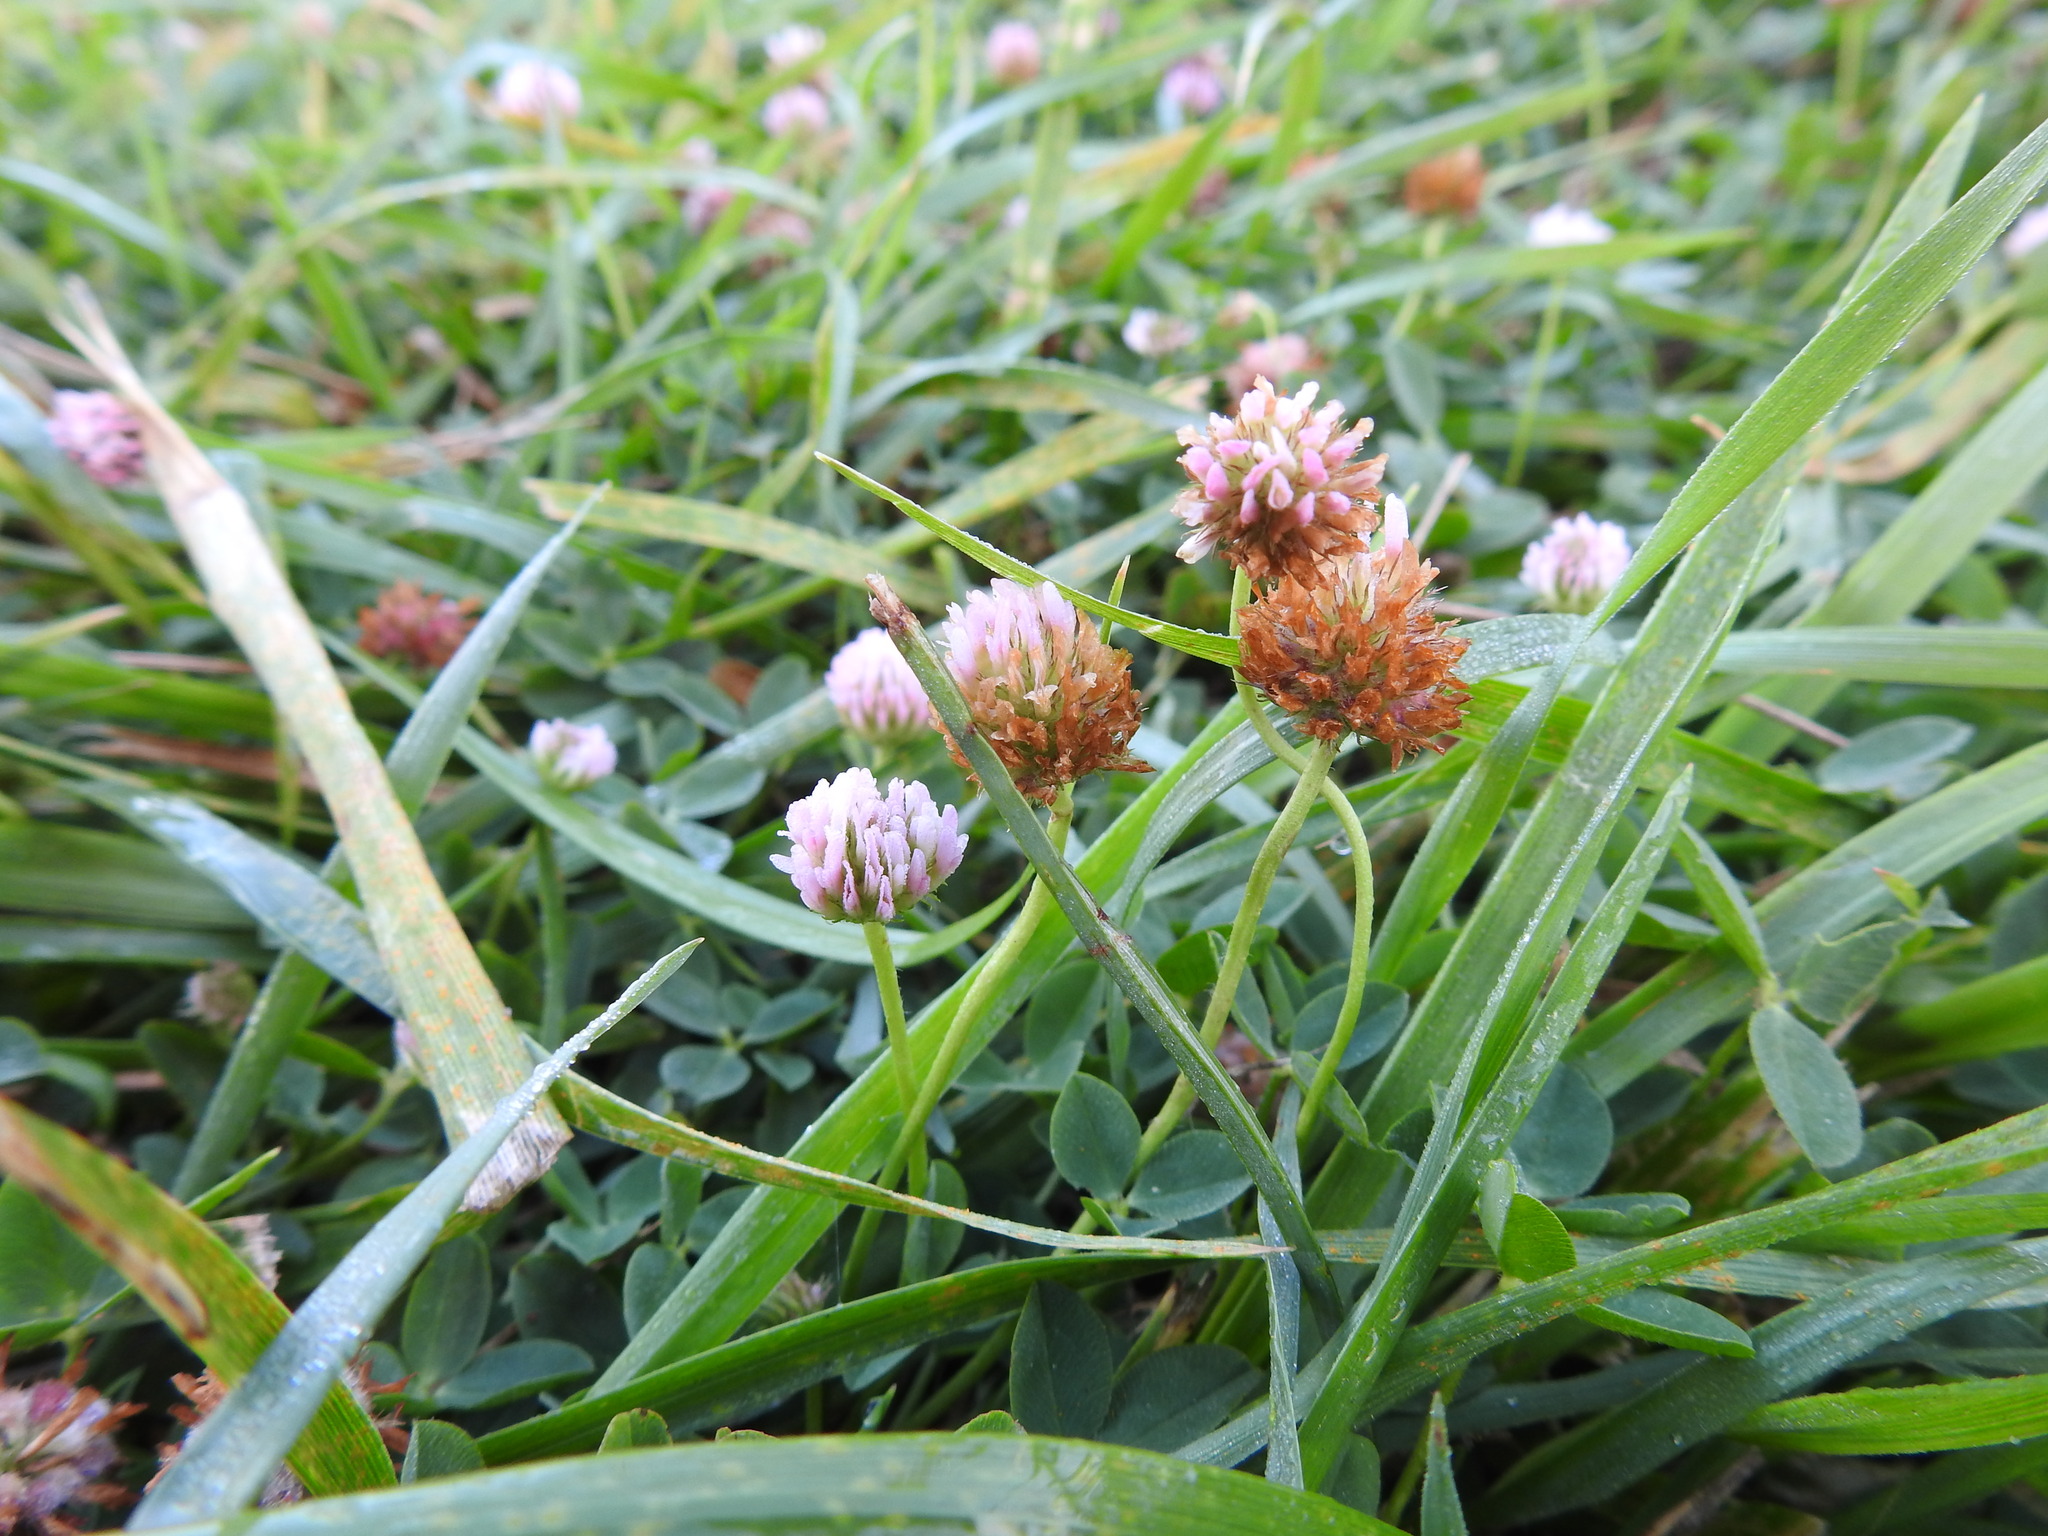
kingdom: Plantae
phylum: Tracheophyta
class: Magnoliopsida
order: Fabales
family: Fabaceae
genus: Trifolium
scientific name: Trifolium fragiferum
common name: Strawberry clover
